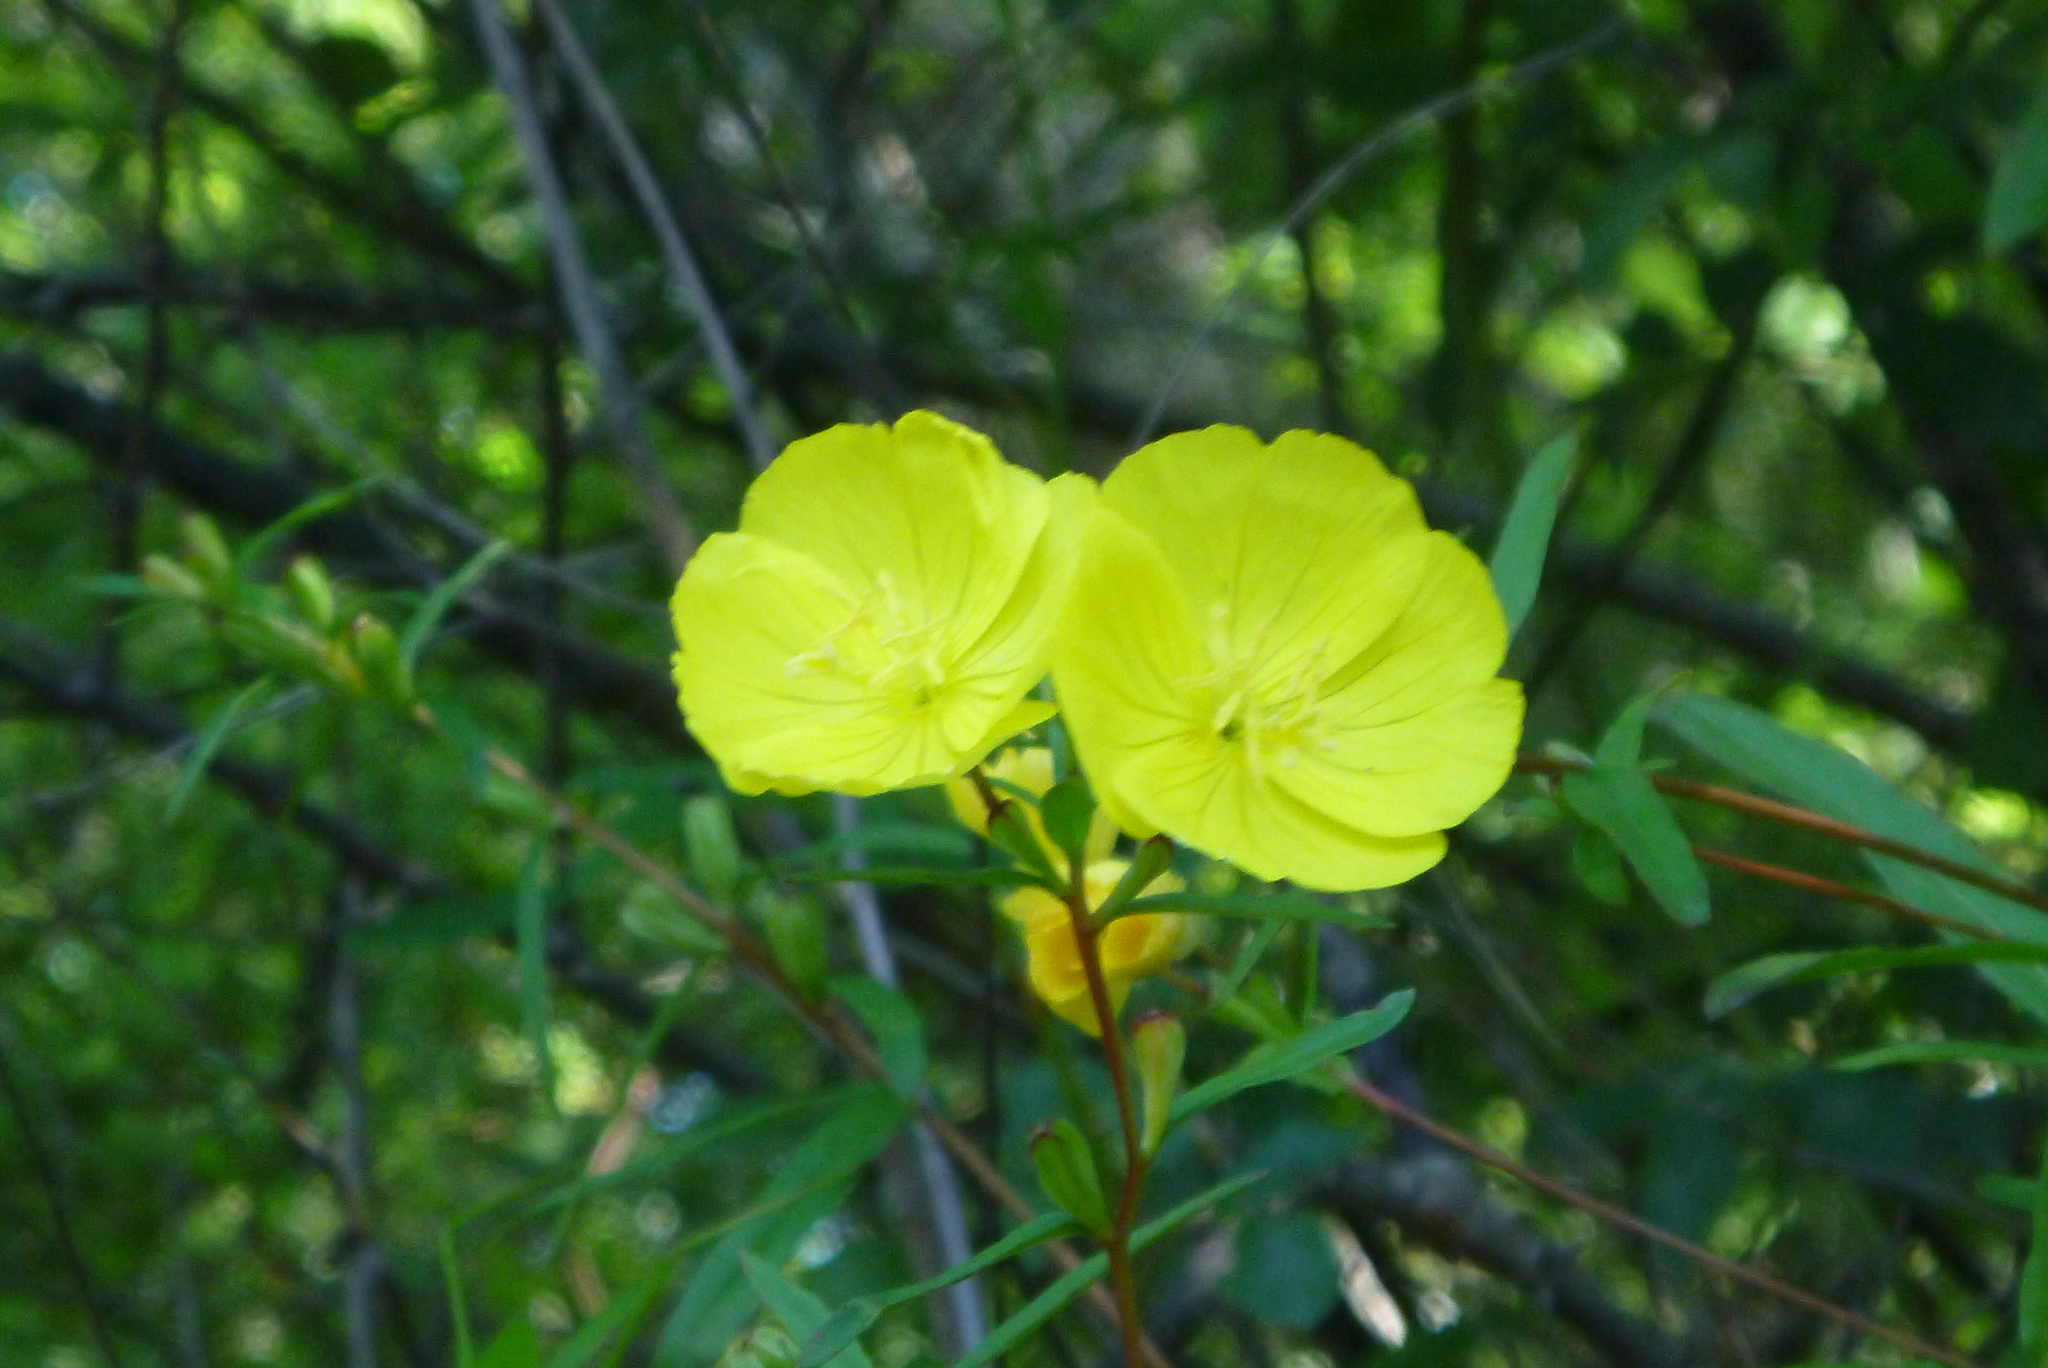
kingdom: Plantae
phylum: Tracheophyta
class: Magnoliopsida
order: Myrtales
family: Onagraceae
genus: Oenothera
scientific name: Oenothera fruticosa
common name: Southern sundrops
